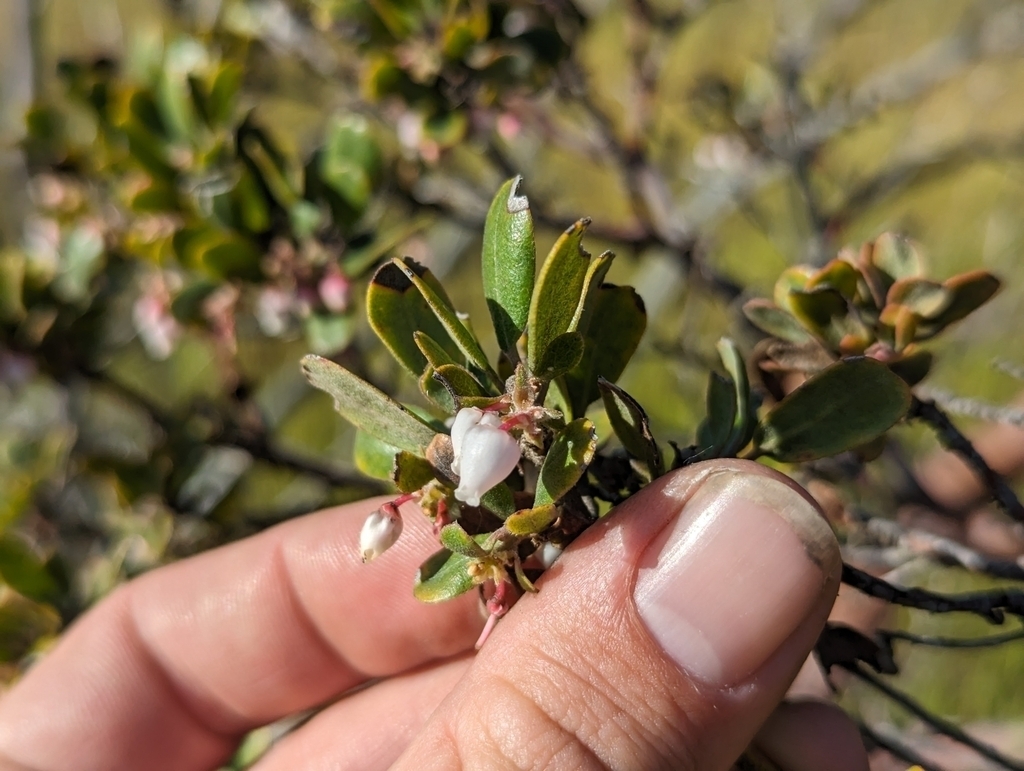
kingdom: Plantae
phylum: Tracheophyta
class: Magnoliopsida
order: Ericales
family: Ericaceae
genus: Arctostaphylos
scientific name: Arctostaphylos pumila
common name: Sandmat manzanita
